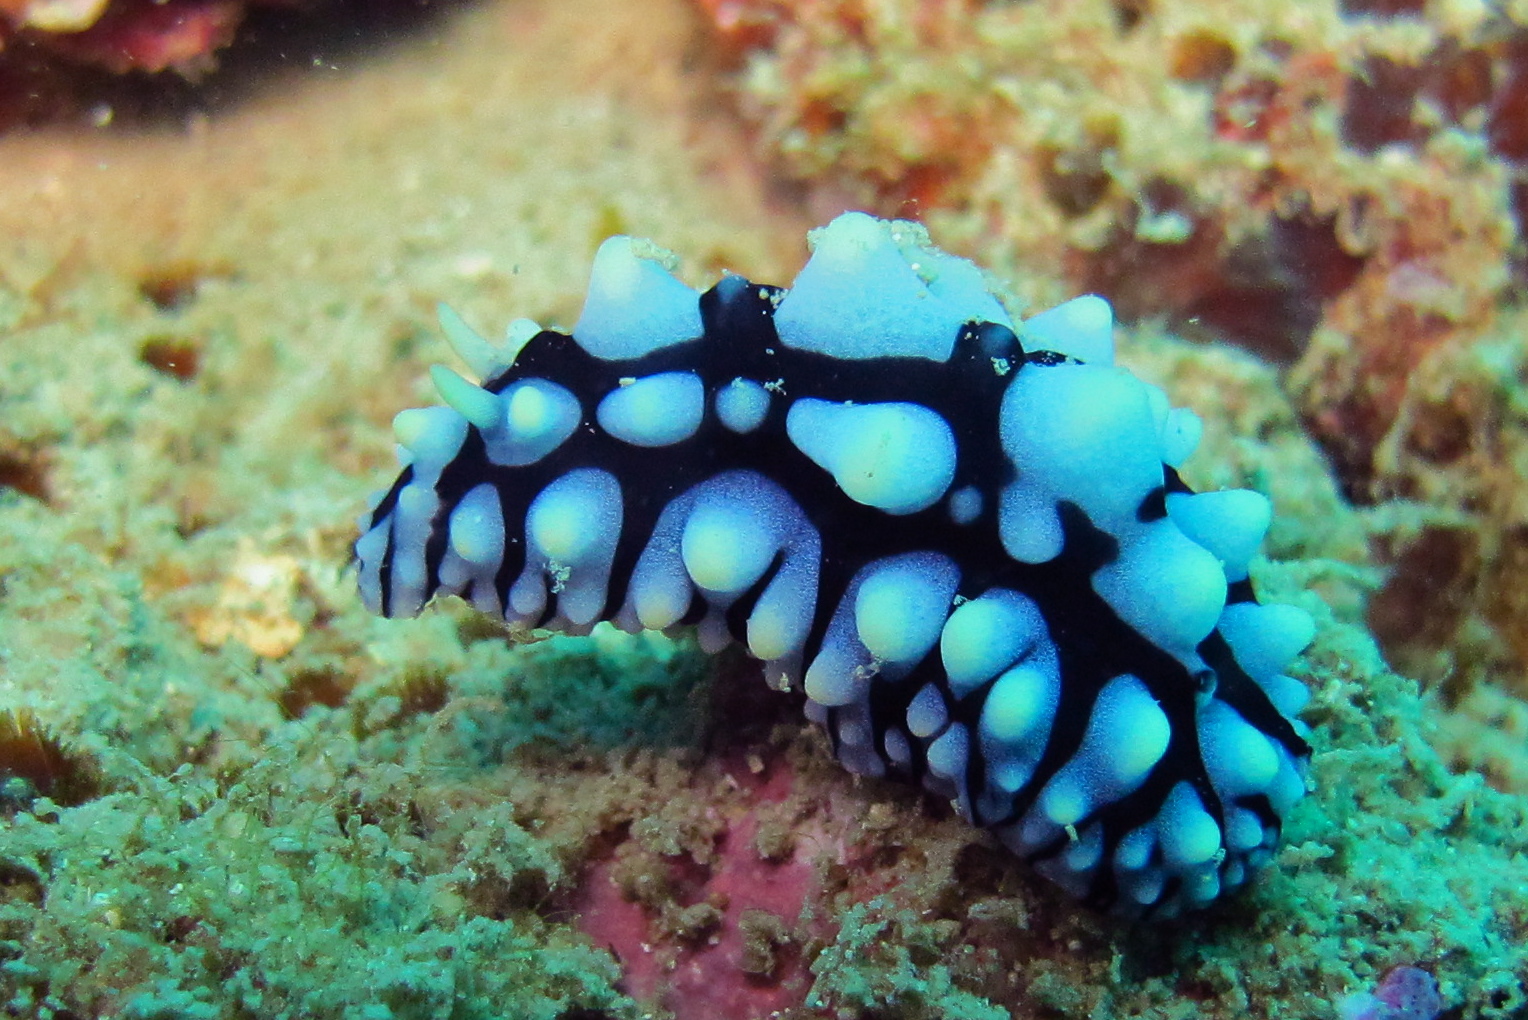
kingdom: Animalia
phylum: Mollusca
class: Gastropoda
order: Nudibranchia
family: Phyllidiidae
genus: Phyllidia
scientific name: Phyllidia varicosa
